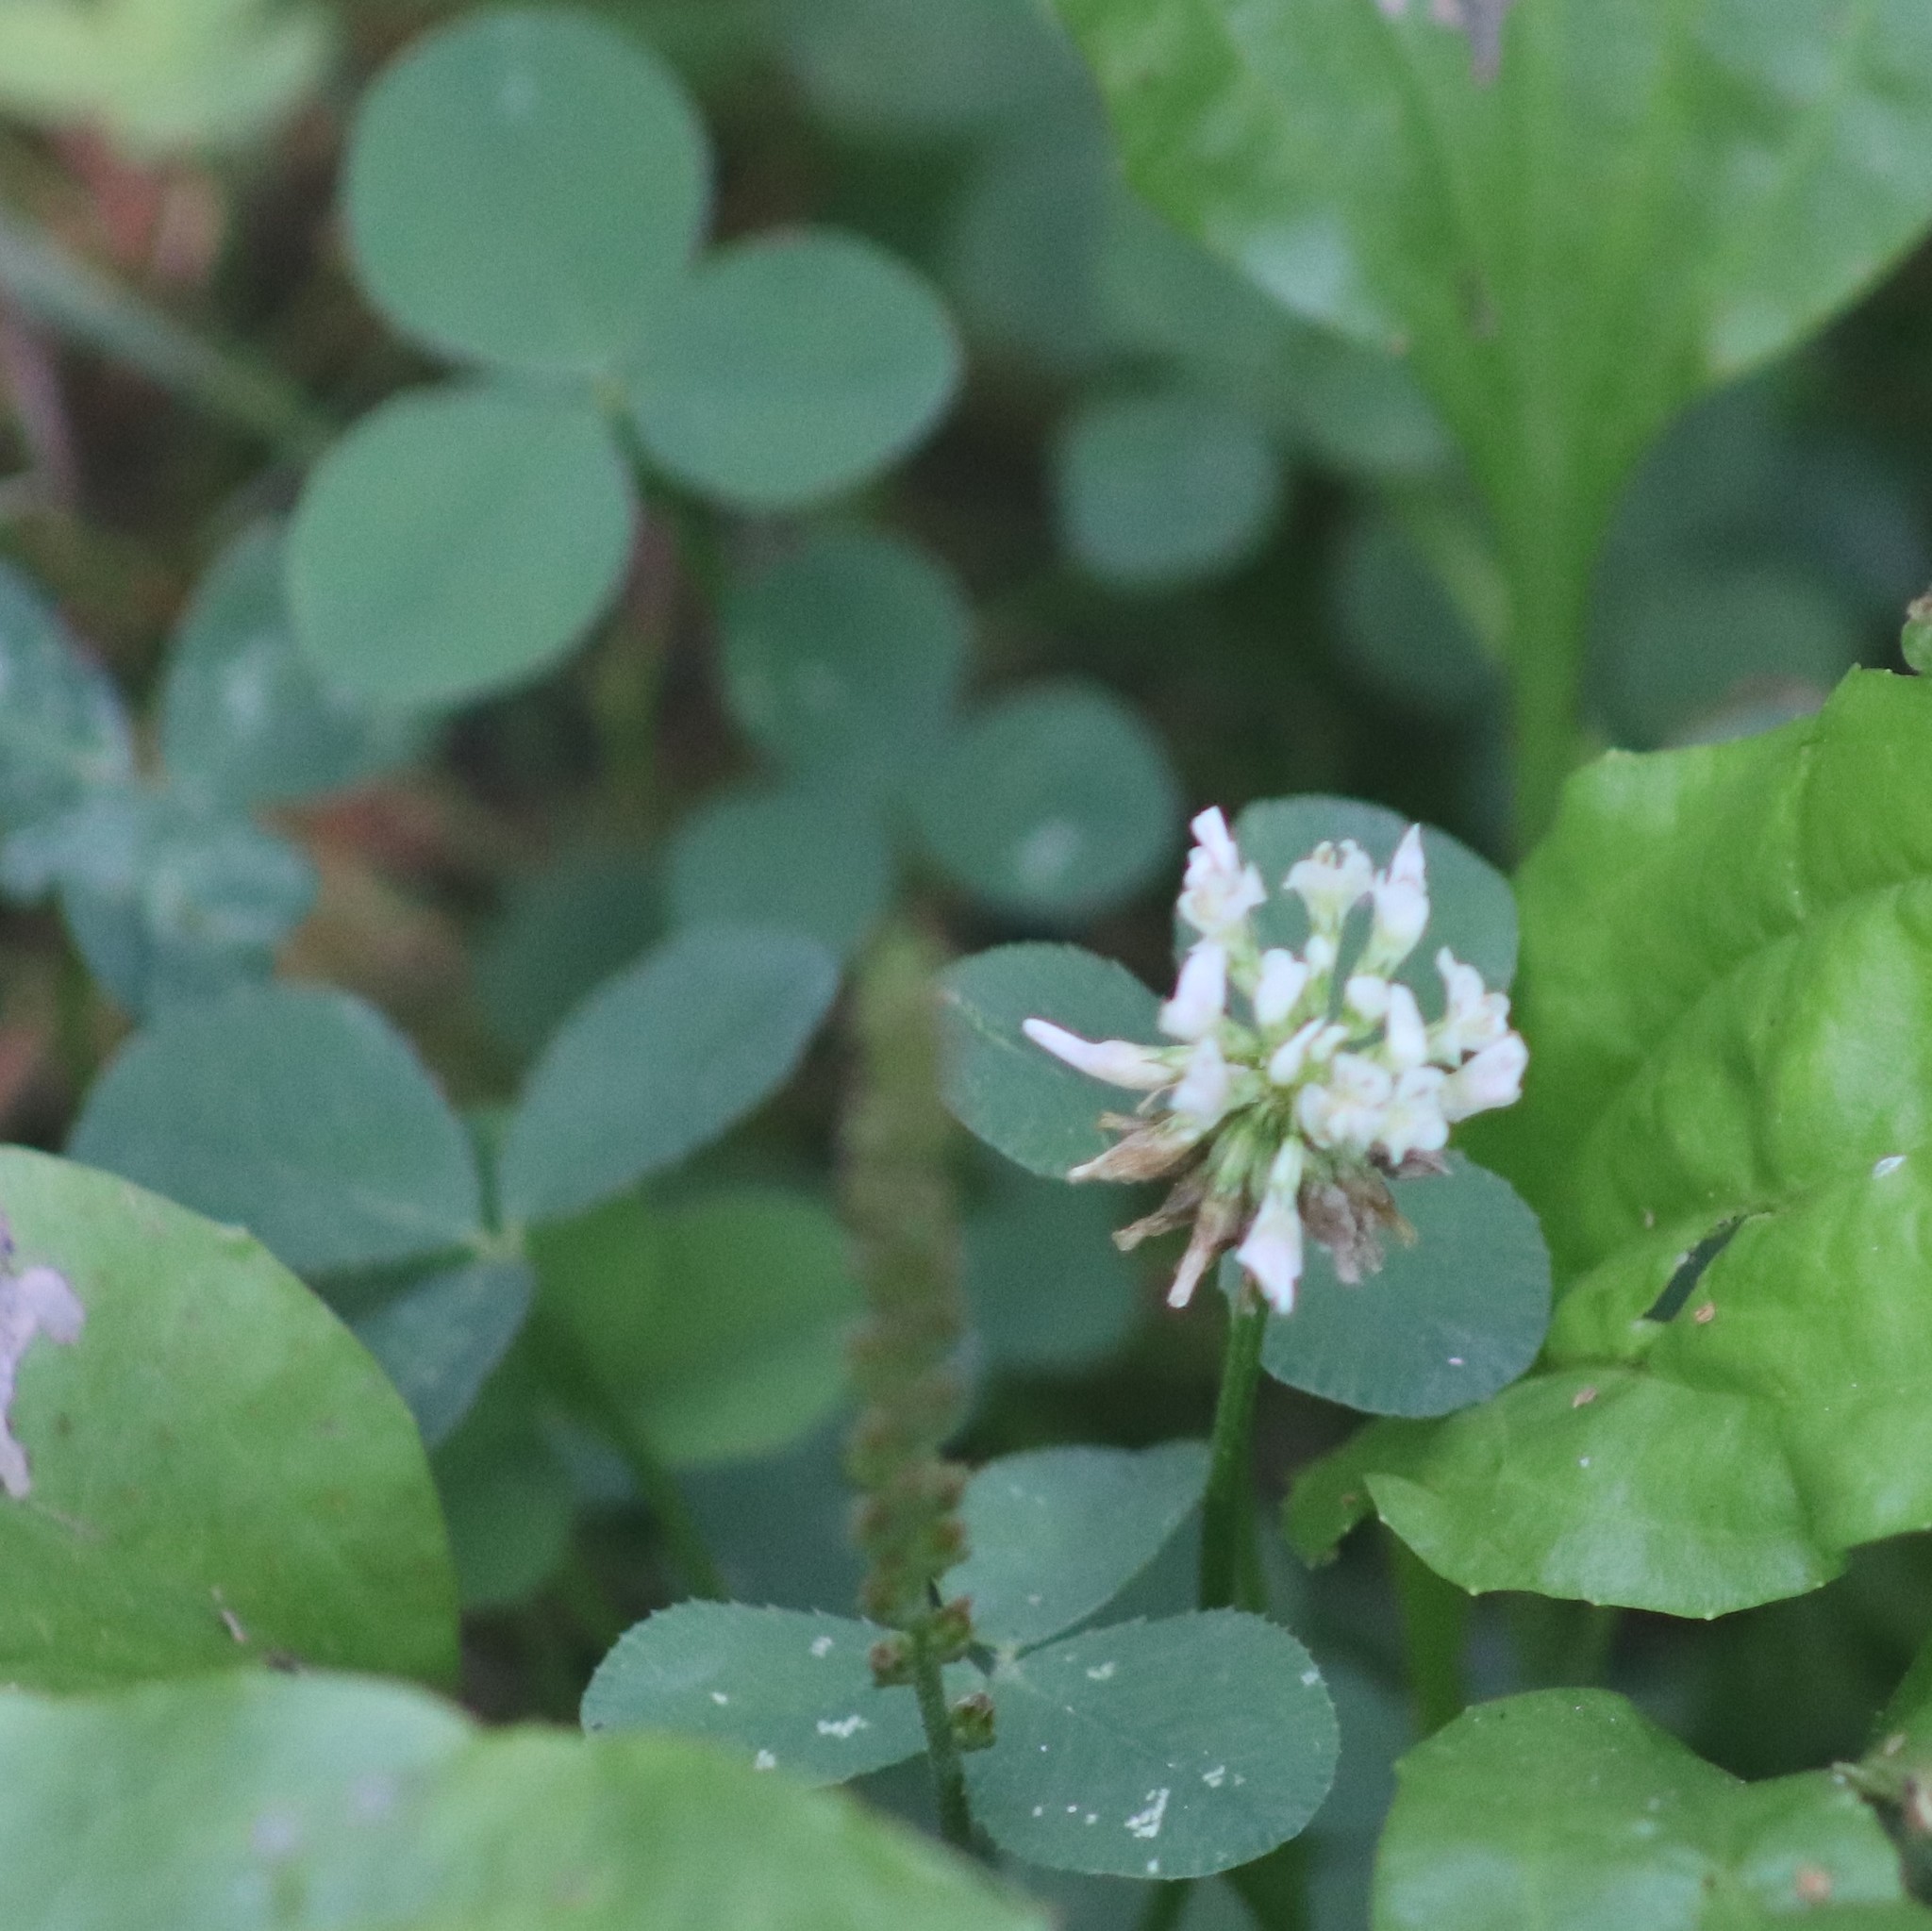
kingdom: Plantae
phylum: Tracheophyta
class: Magnoliopsida
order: Fabales
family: Fabaceae
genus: Trifolium
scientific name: Trifolium repens
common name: White clover
